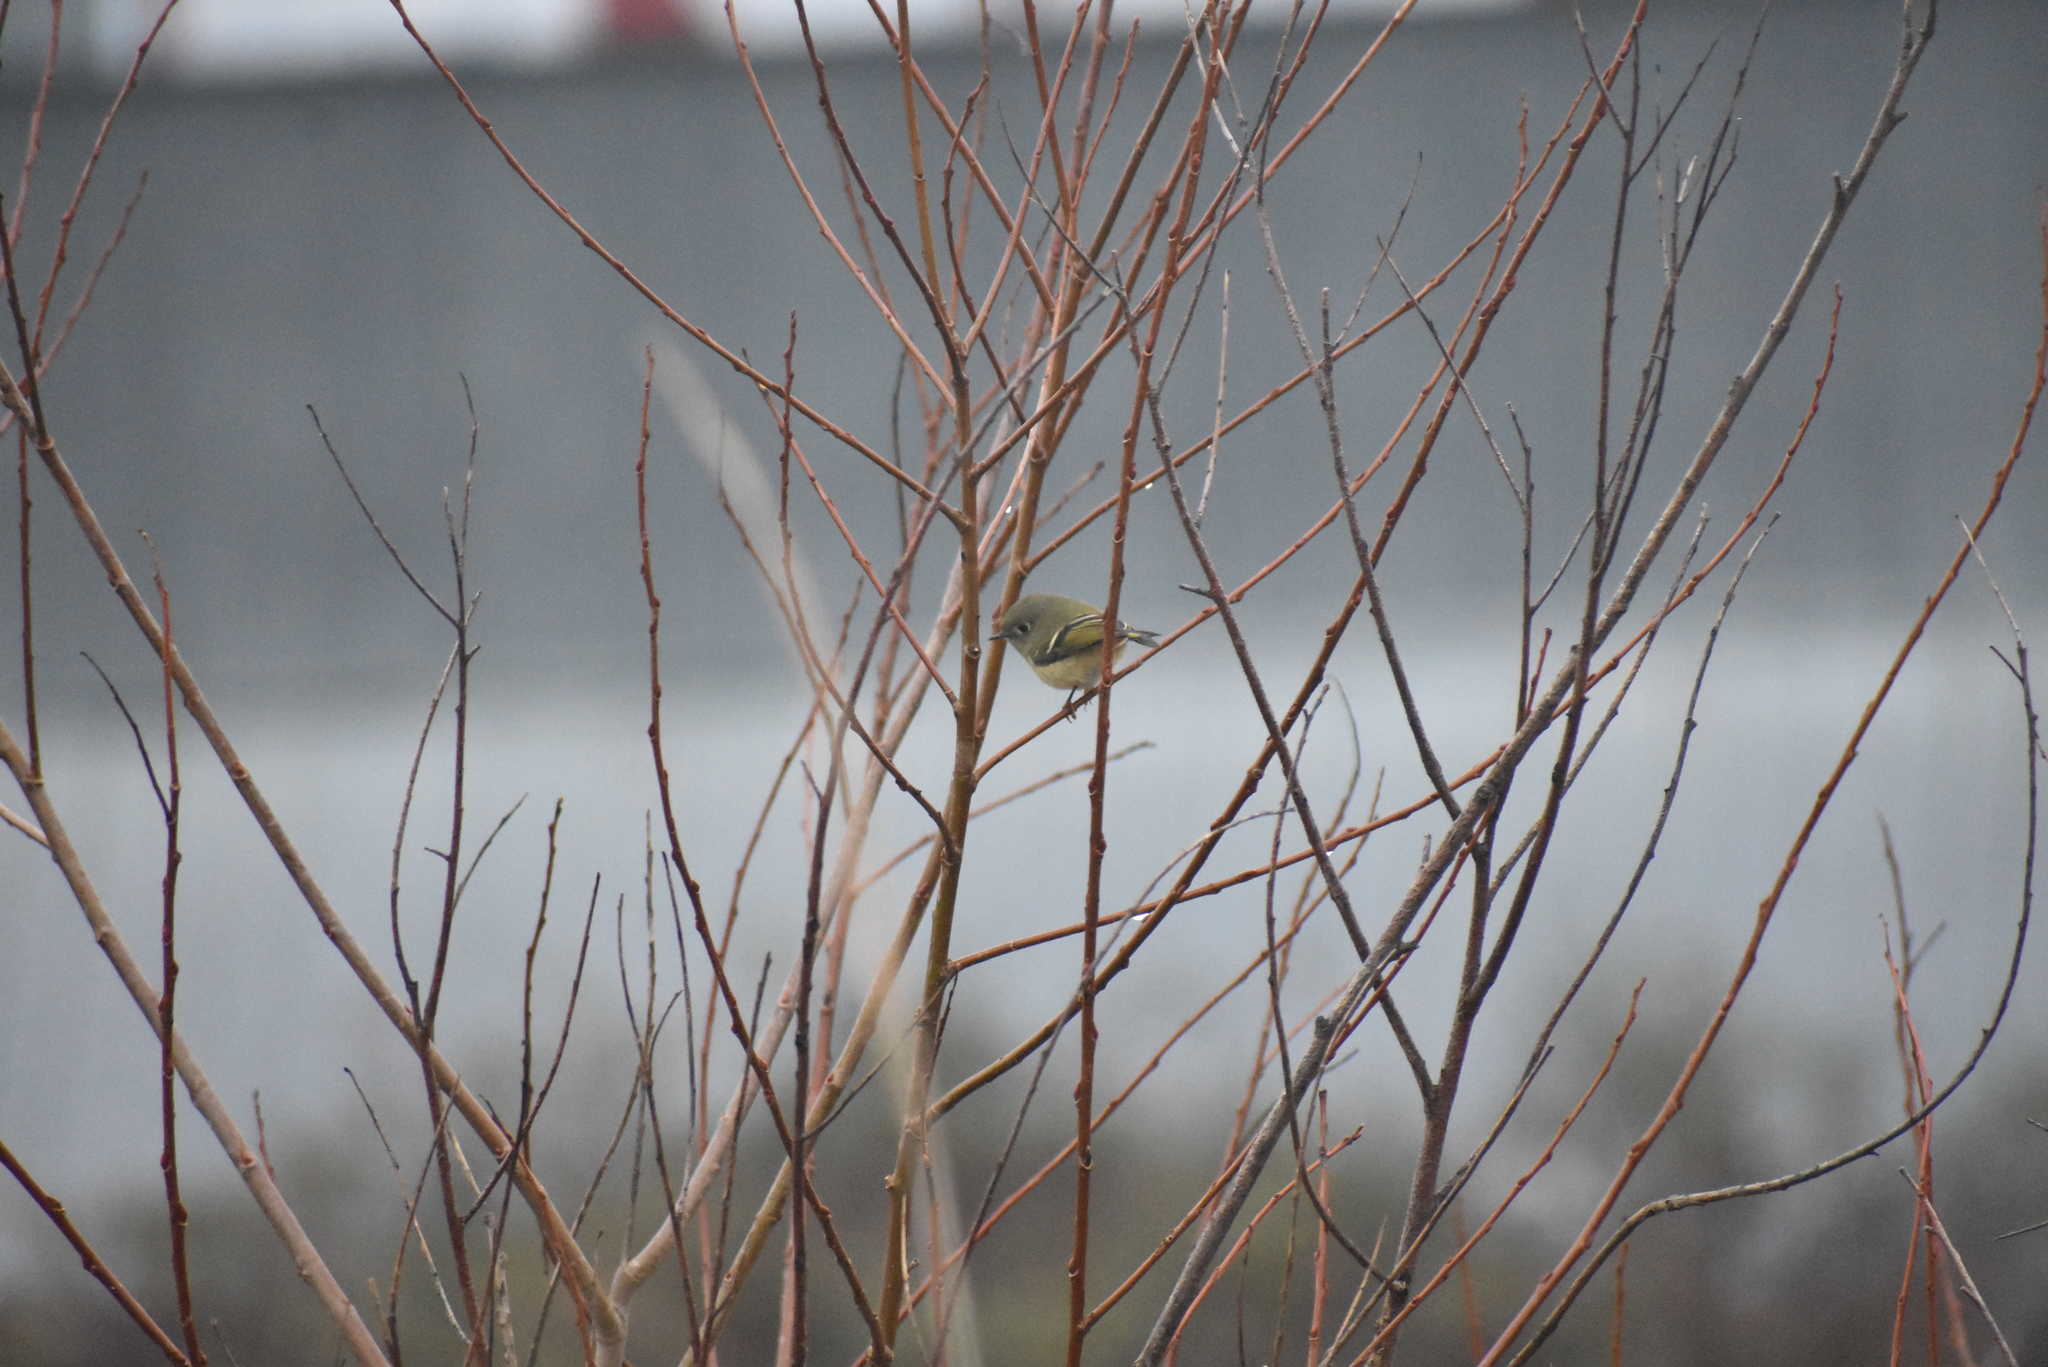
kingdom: Animalia
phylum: Chordata
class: Aves
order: Passeriformes
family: Regulidae
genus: Regulus
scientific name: Regulus calendula
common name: Ruby-crowned kinglet
